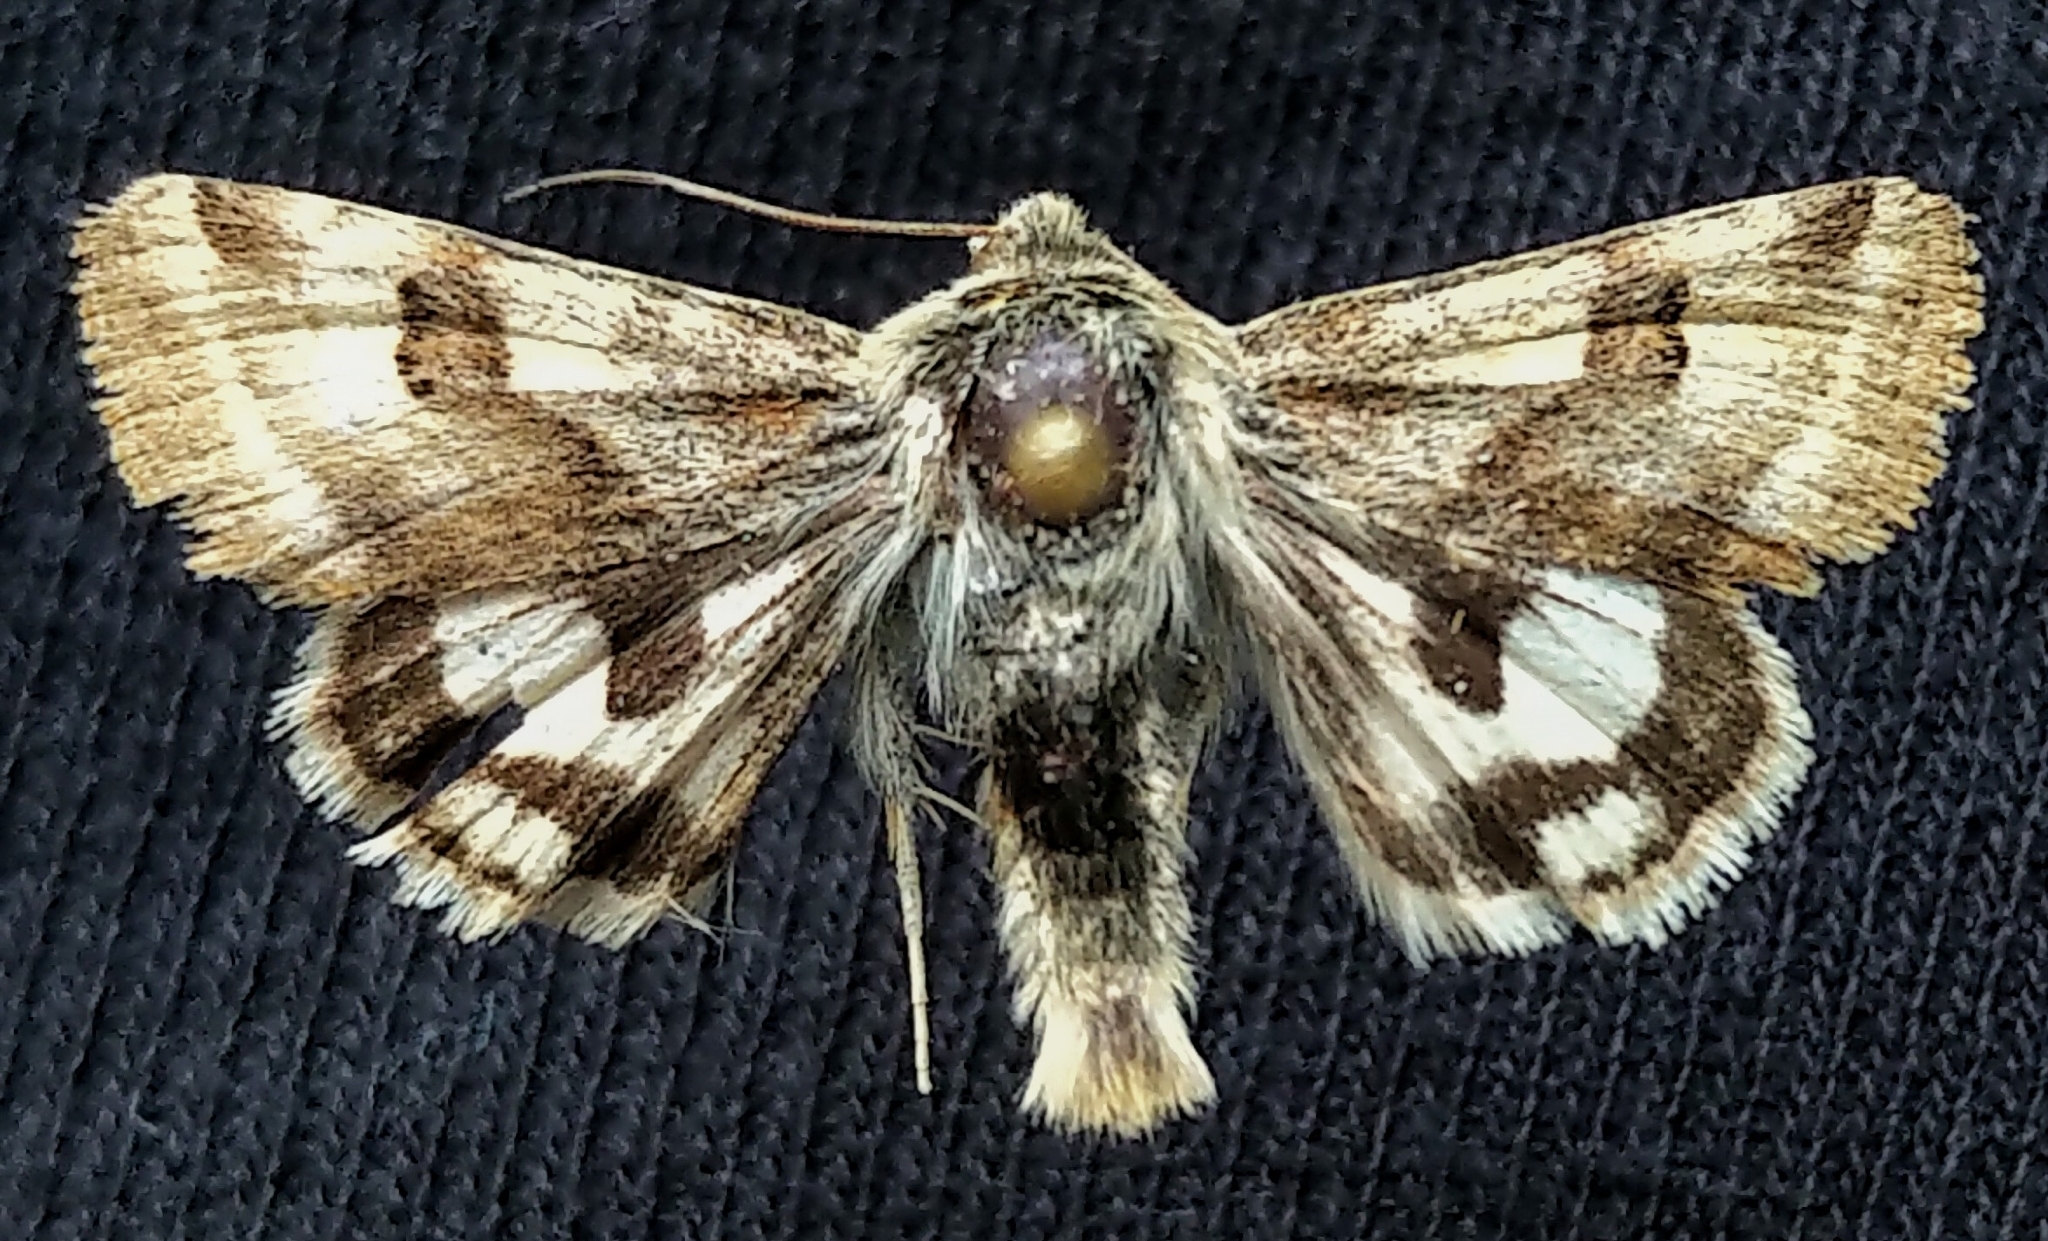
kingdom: Animalia
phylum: Arthropoda
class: Insecta
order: Lepidoptera
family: Noctuidae
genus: Heliothis
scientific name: Heliothis ononis
